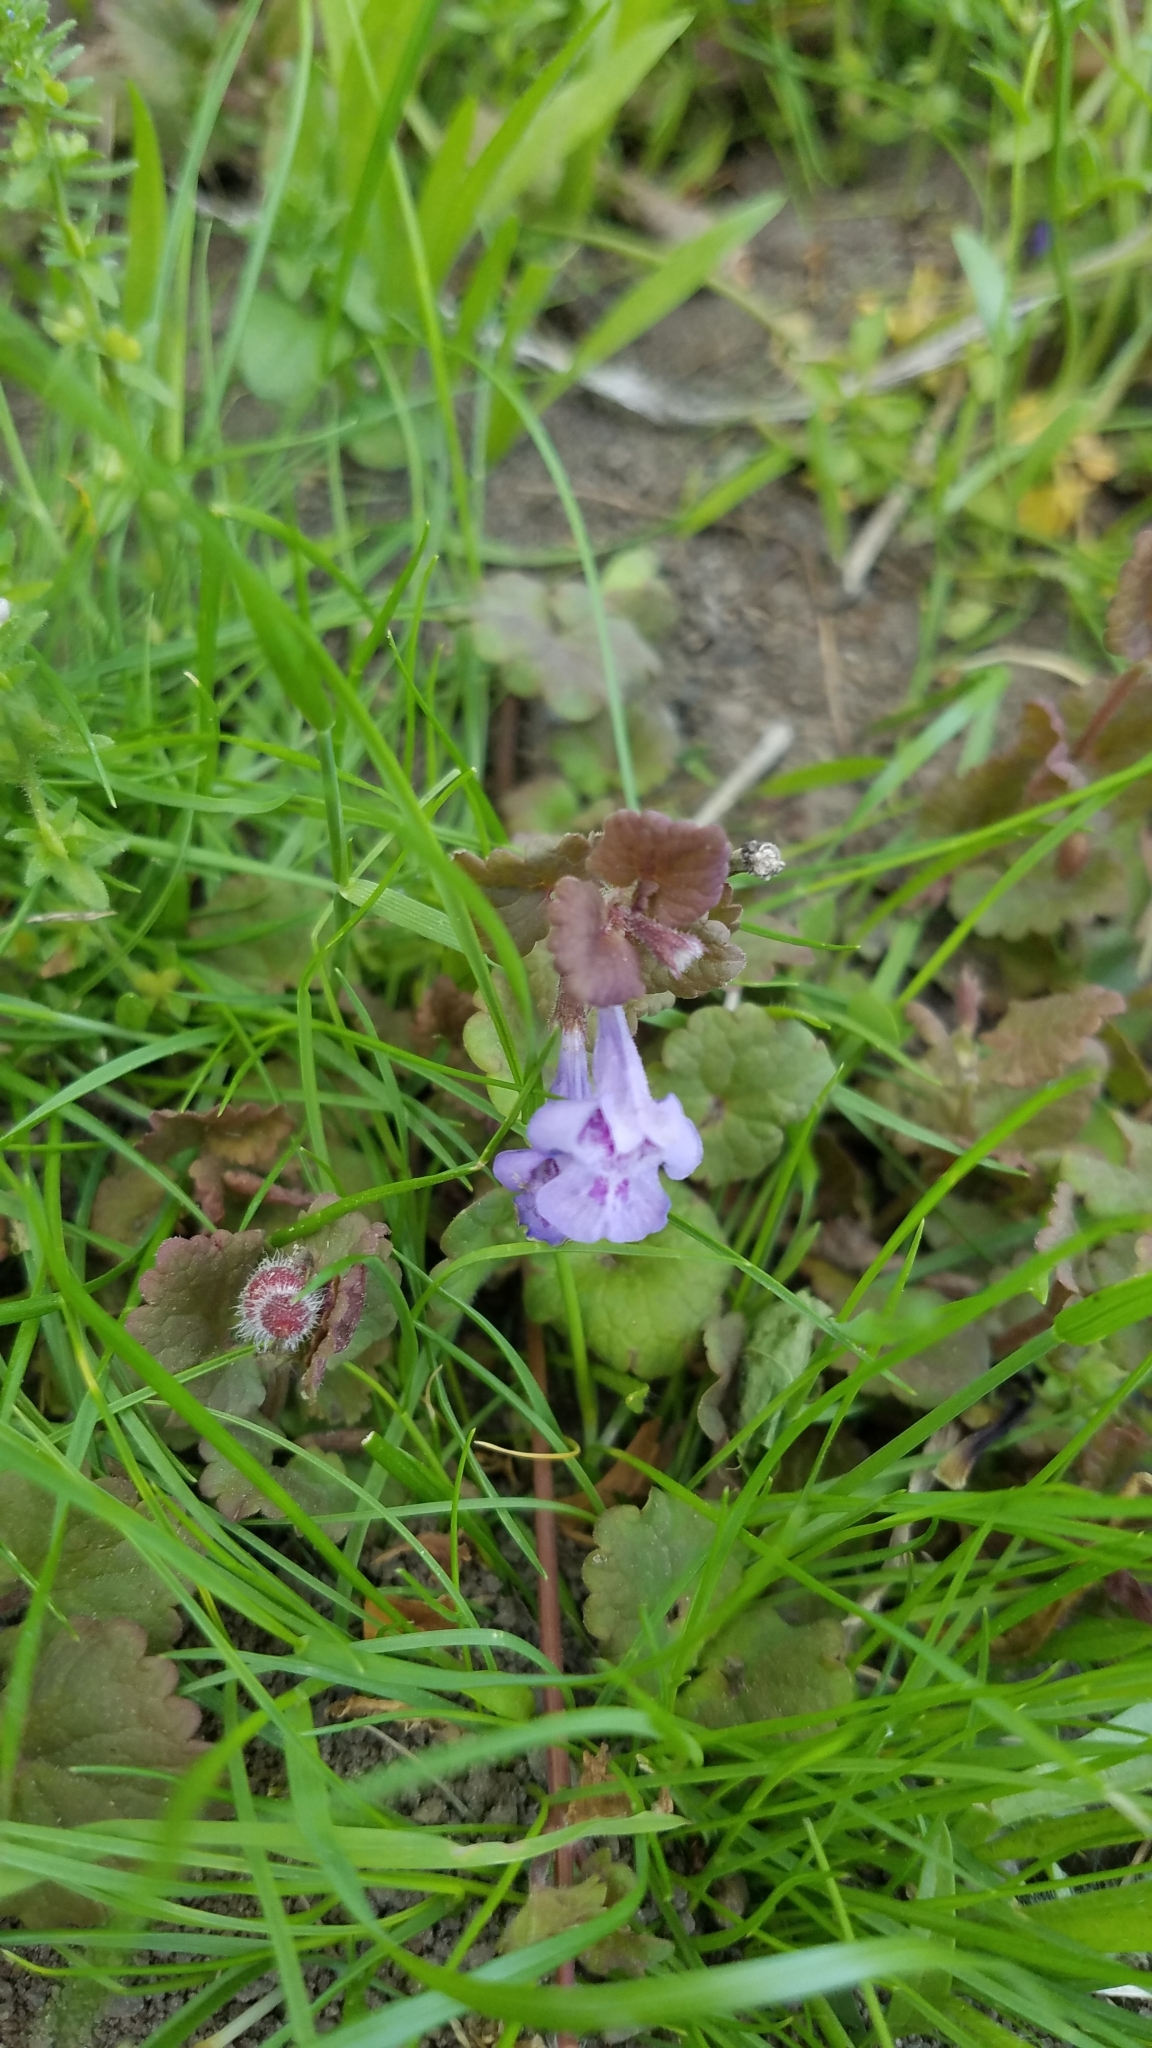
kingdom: Plantae
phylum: Tracheophyta
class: Magnoliopsida
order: Lamiales
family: Lamiaceae
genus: Glechoma
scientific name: Glechoma hederacea
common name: Ground ivy
